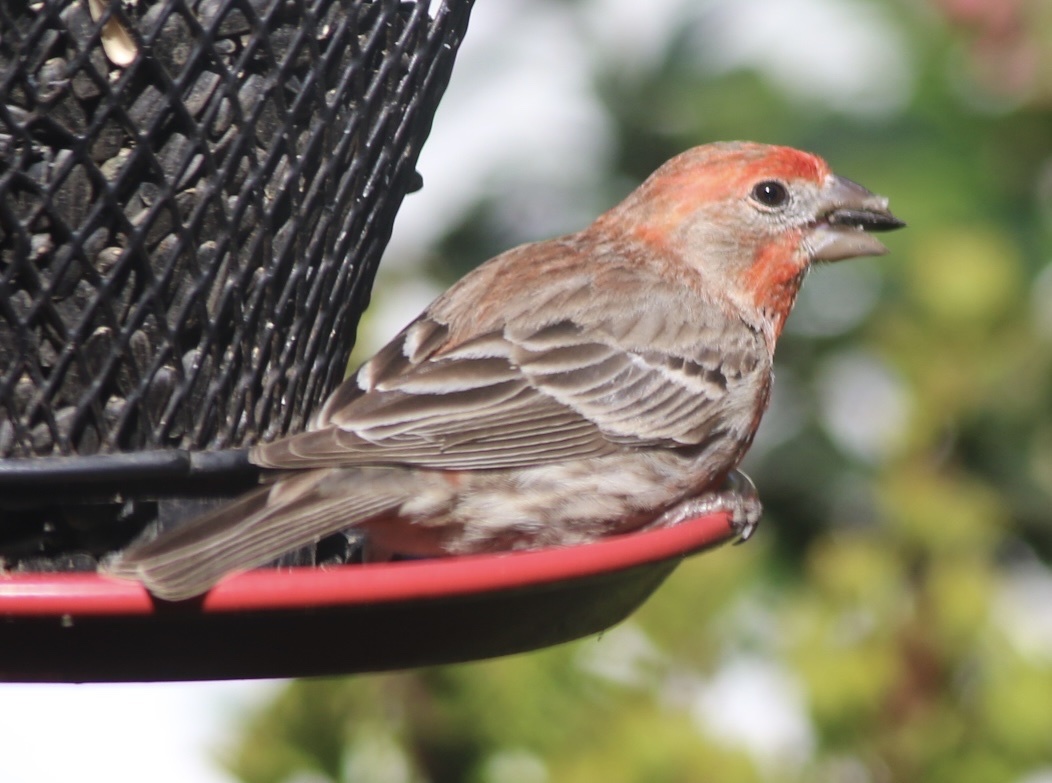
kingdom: Animalia
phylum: Chordata
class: Aves
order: Passeriformes
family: Fringillidae
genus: Haemorhous
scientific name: Haemorhous mexicanus
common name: House finch
